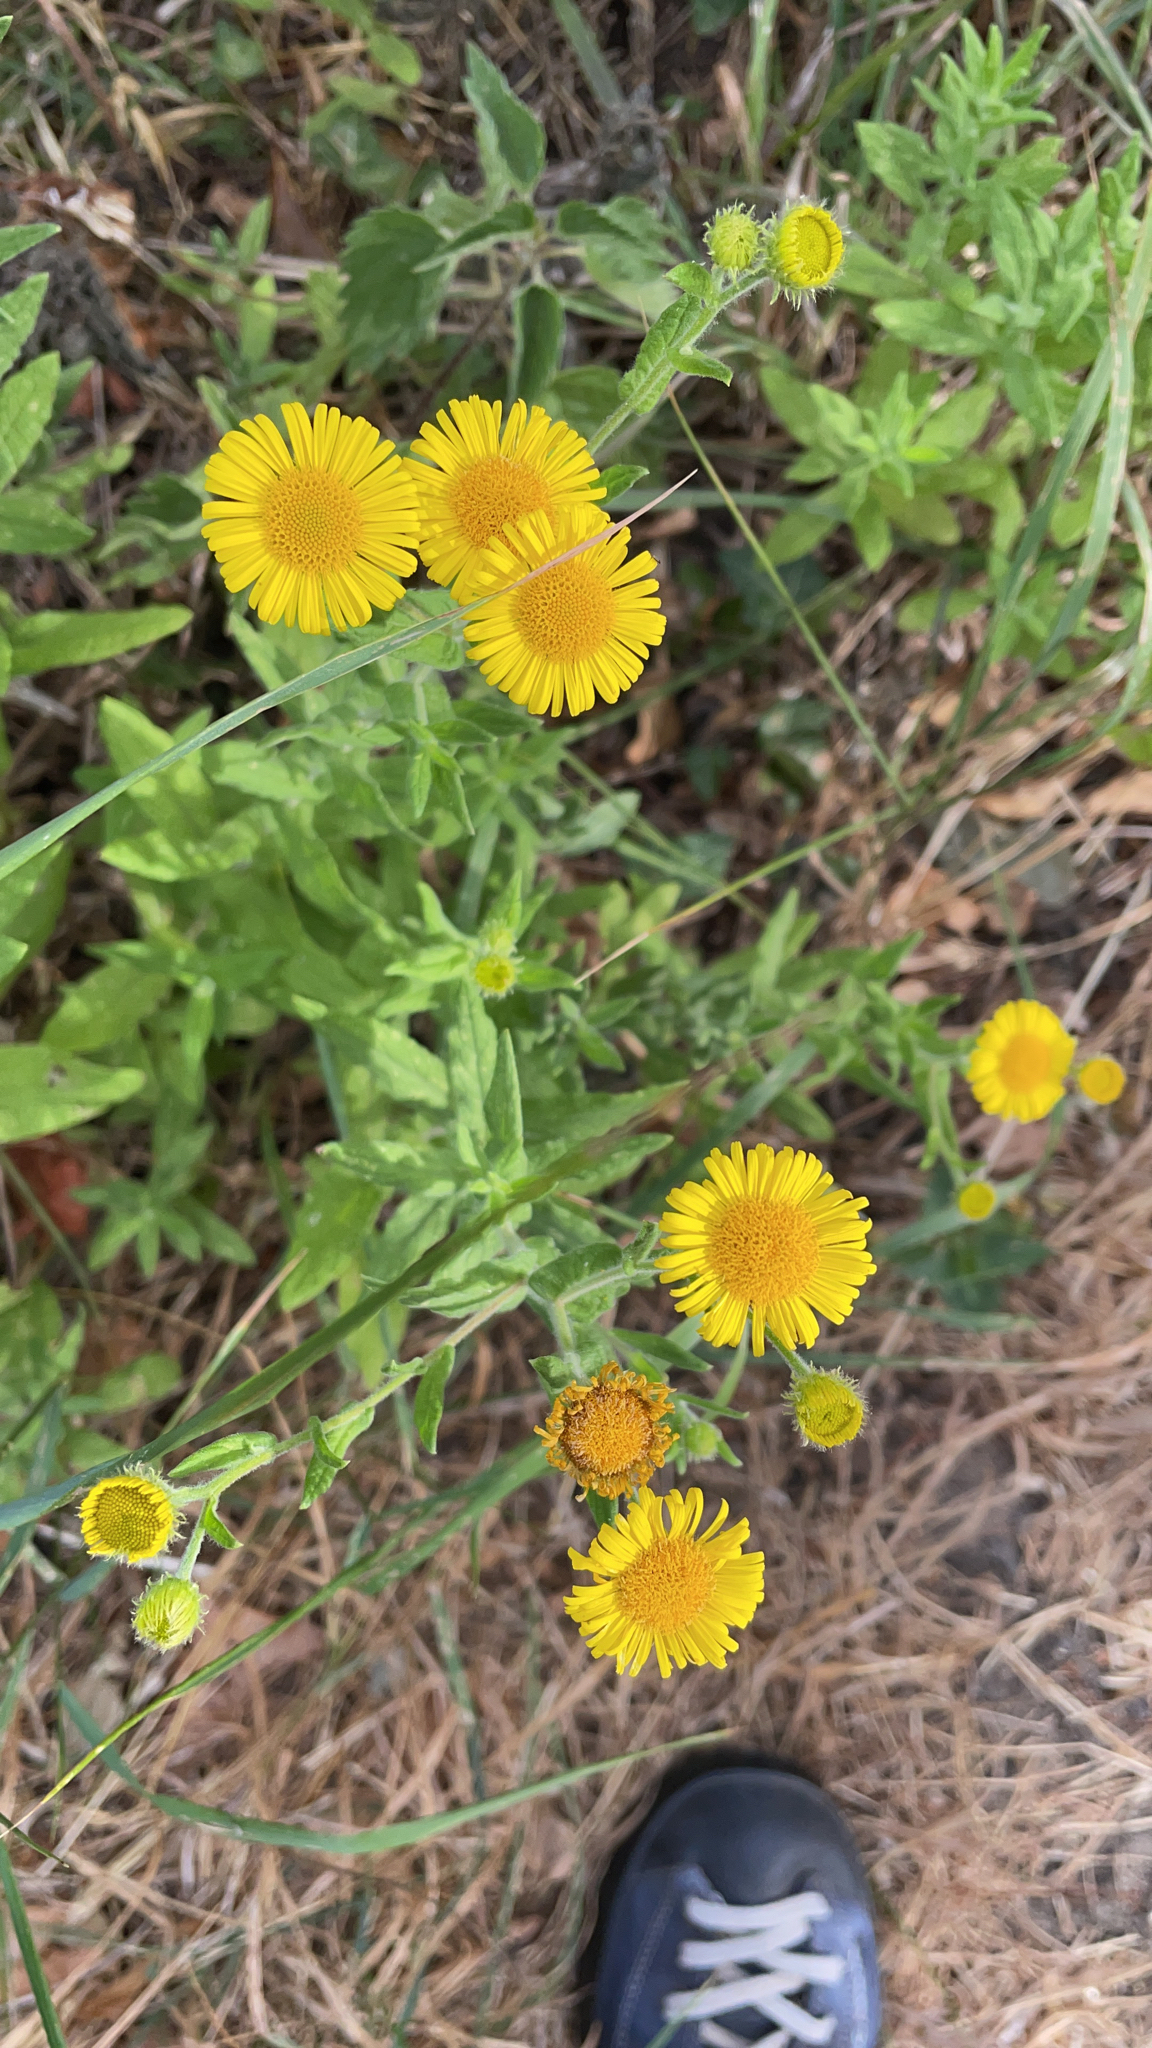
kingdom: Plantae
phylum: Tracheophyta
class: Magnoliopsida
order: Asterales
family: Asteraceae
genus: Pulicaria
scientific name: Pulicaria dysenterica
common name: Common fleabane
